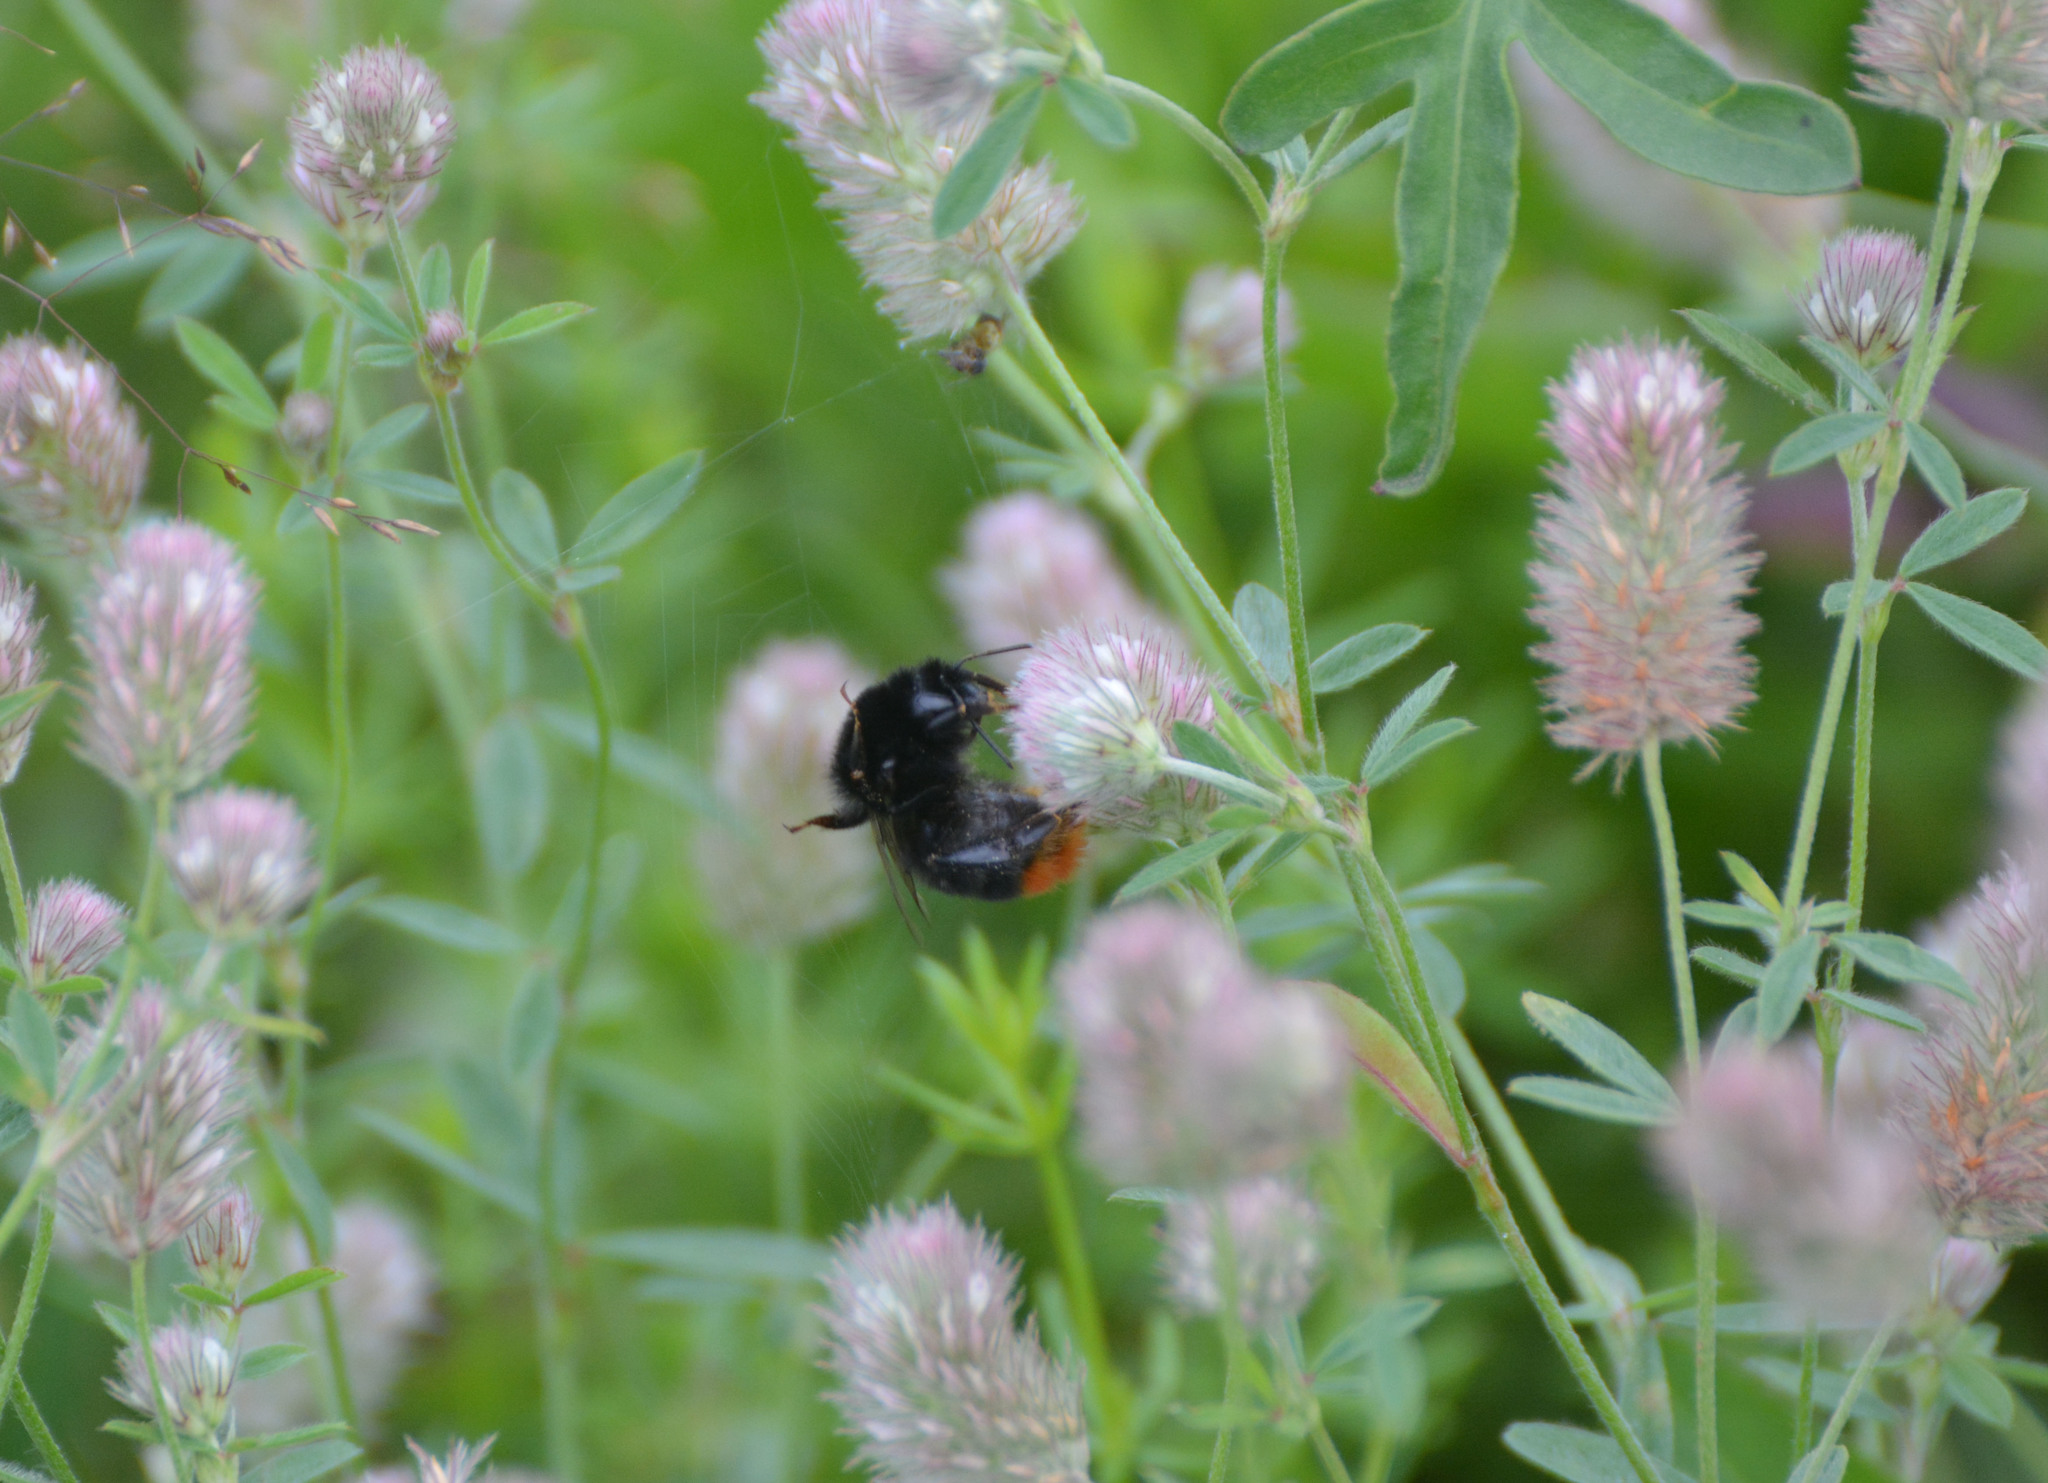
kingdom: Animalia
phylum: Arthropoda
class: Insecta
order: Hymenoptera
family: Apidae
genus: Bombus
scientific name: Bombus lapidarius
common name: Large red-tailed humble-bee
